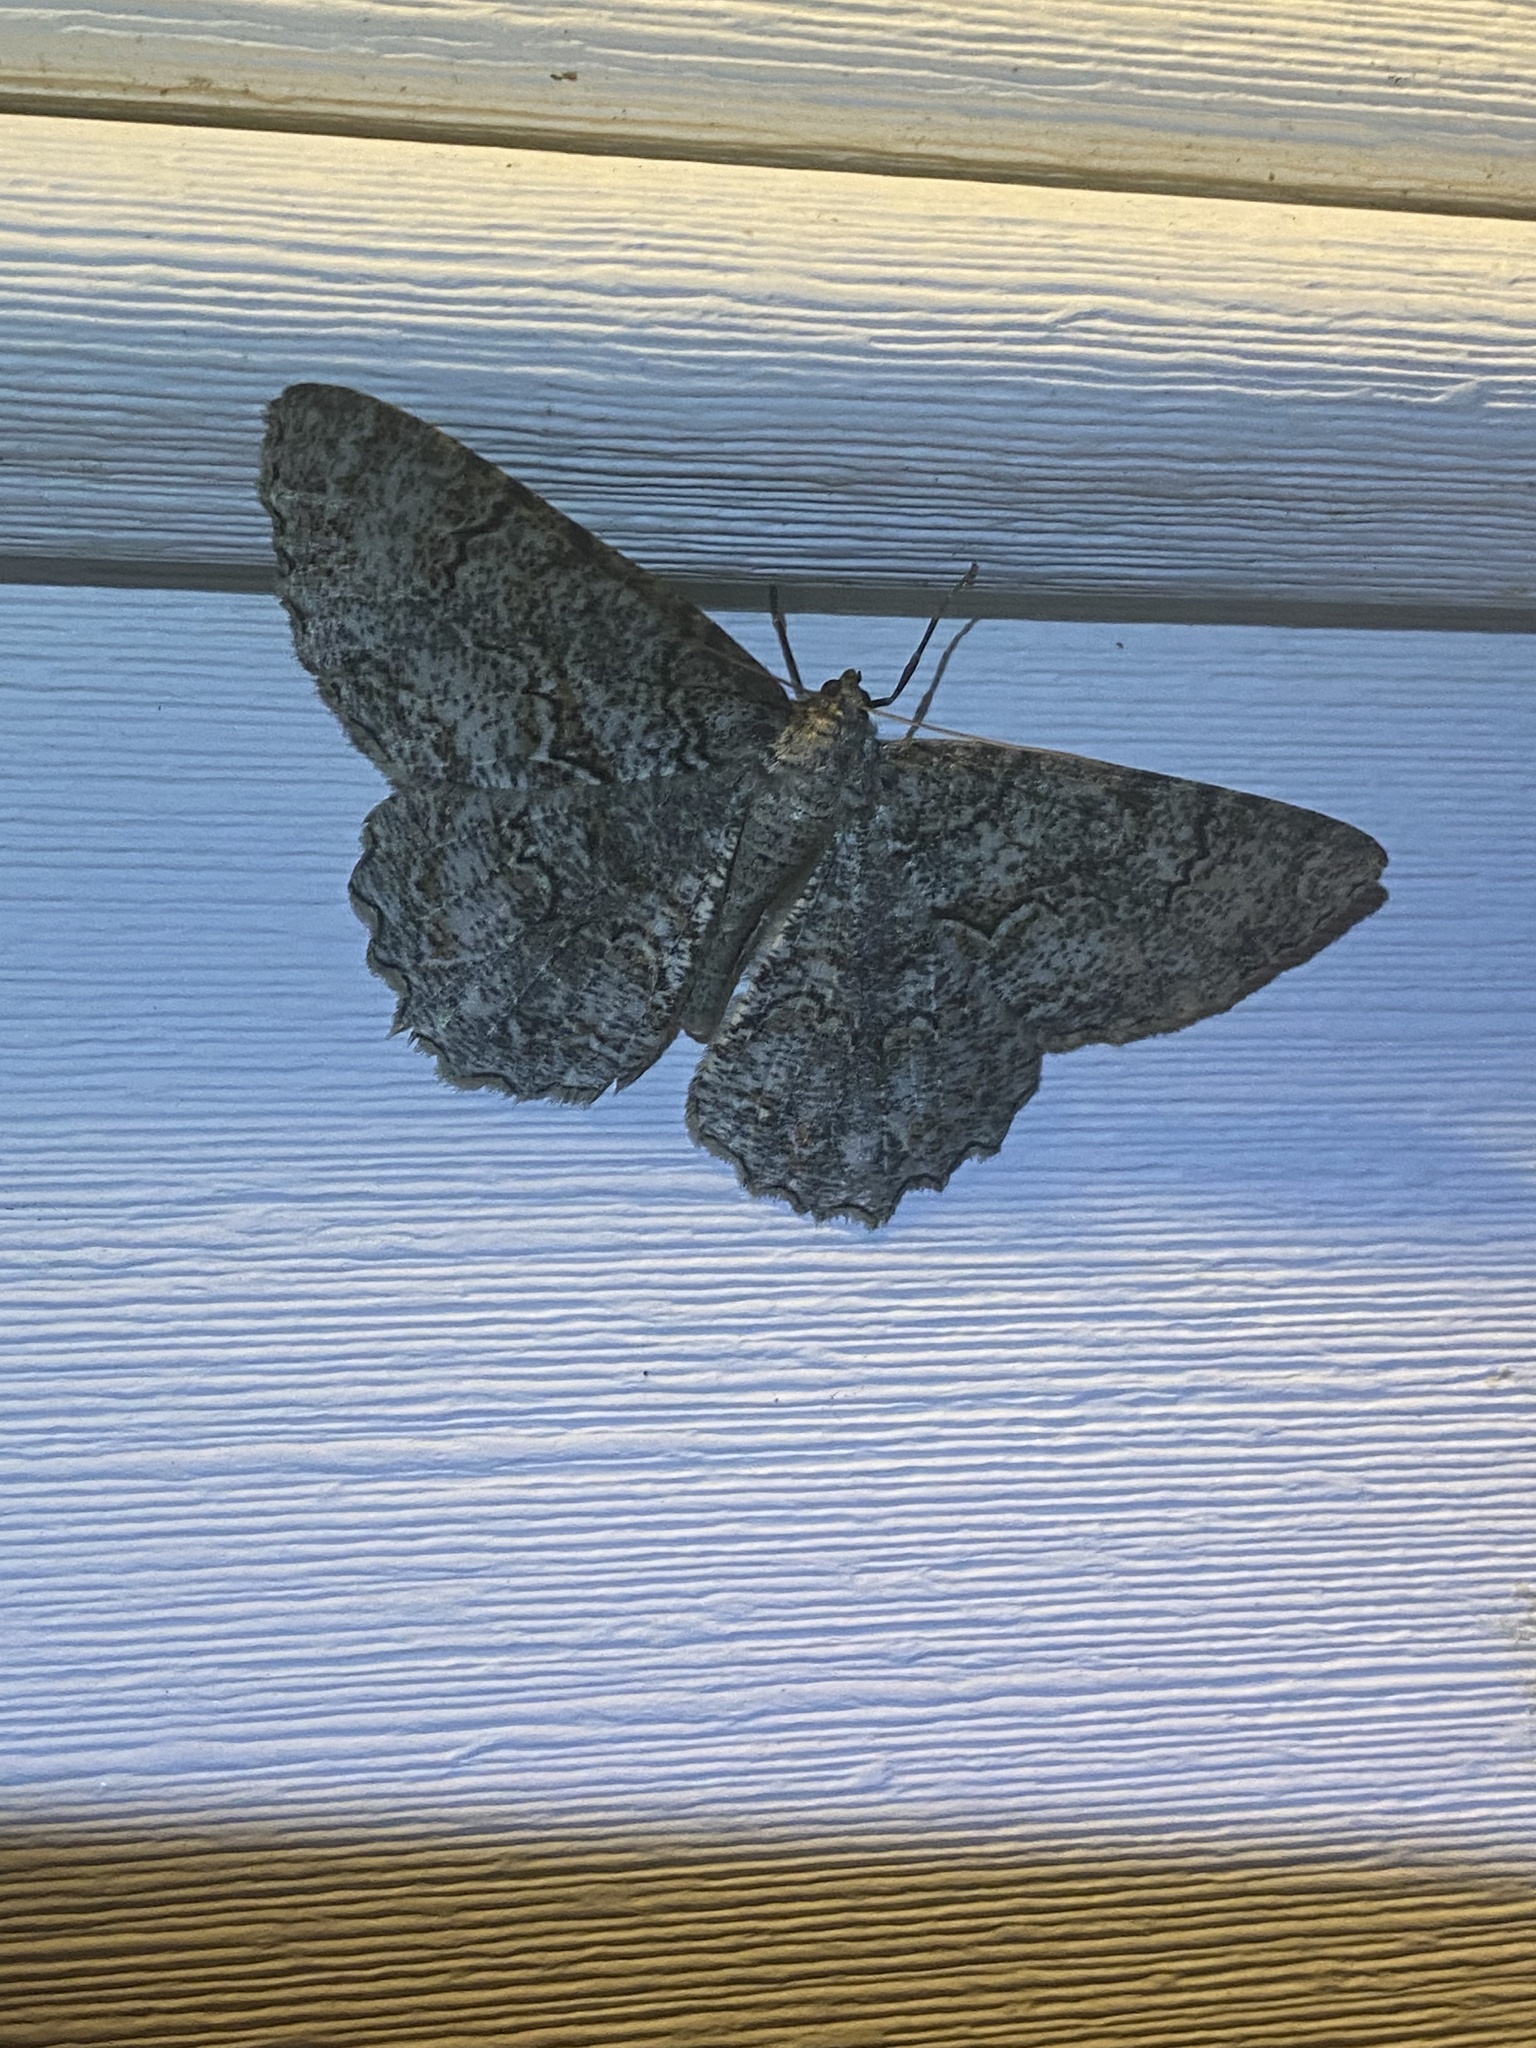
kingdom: Animalia
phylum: Arthropoda
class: Insecta
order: Lepidoptera
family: Geometridae
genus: Epimecis
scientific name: Epimecis hortaria
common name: Tulip-tree beauty
